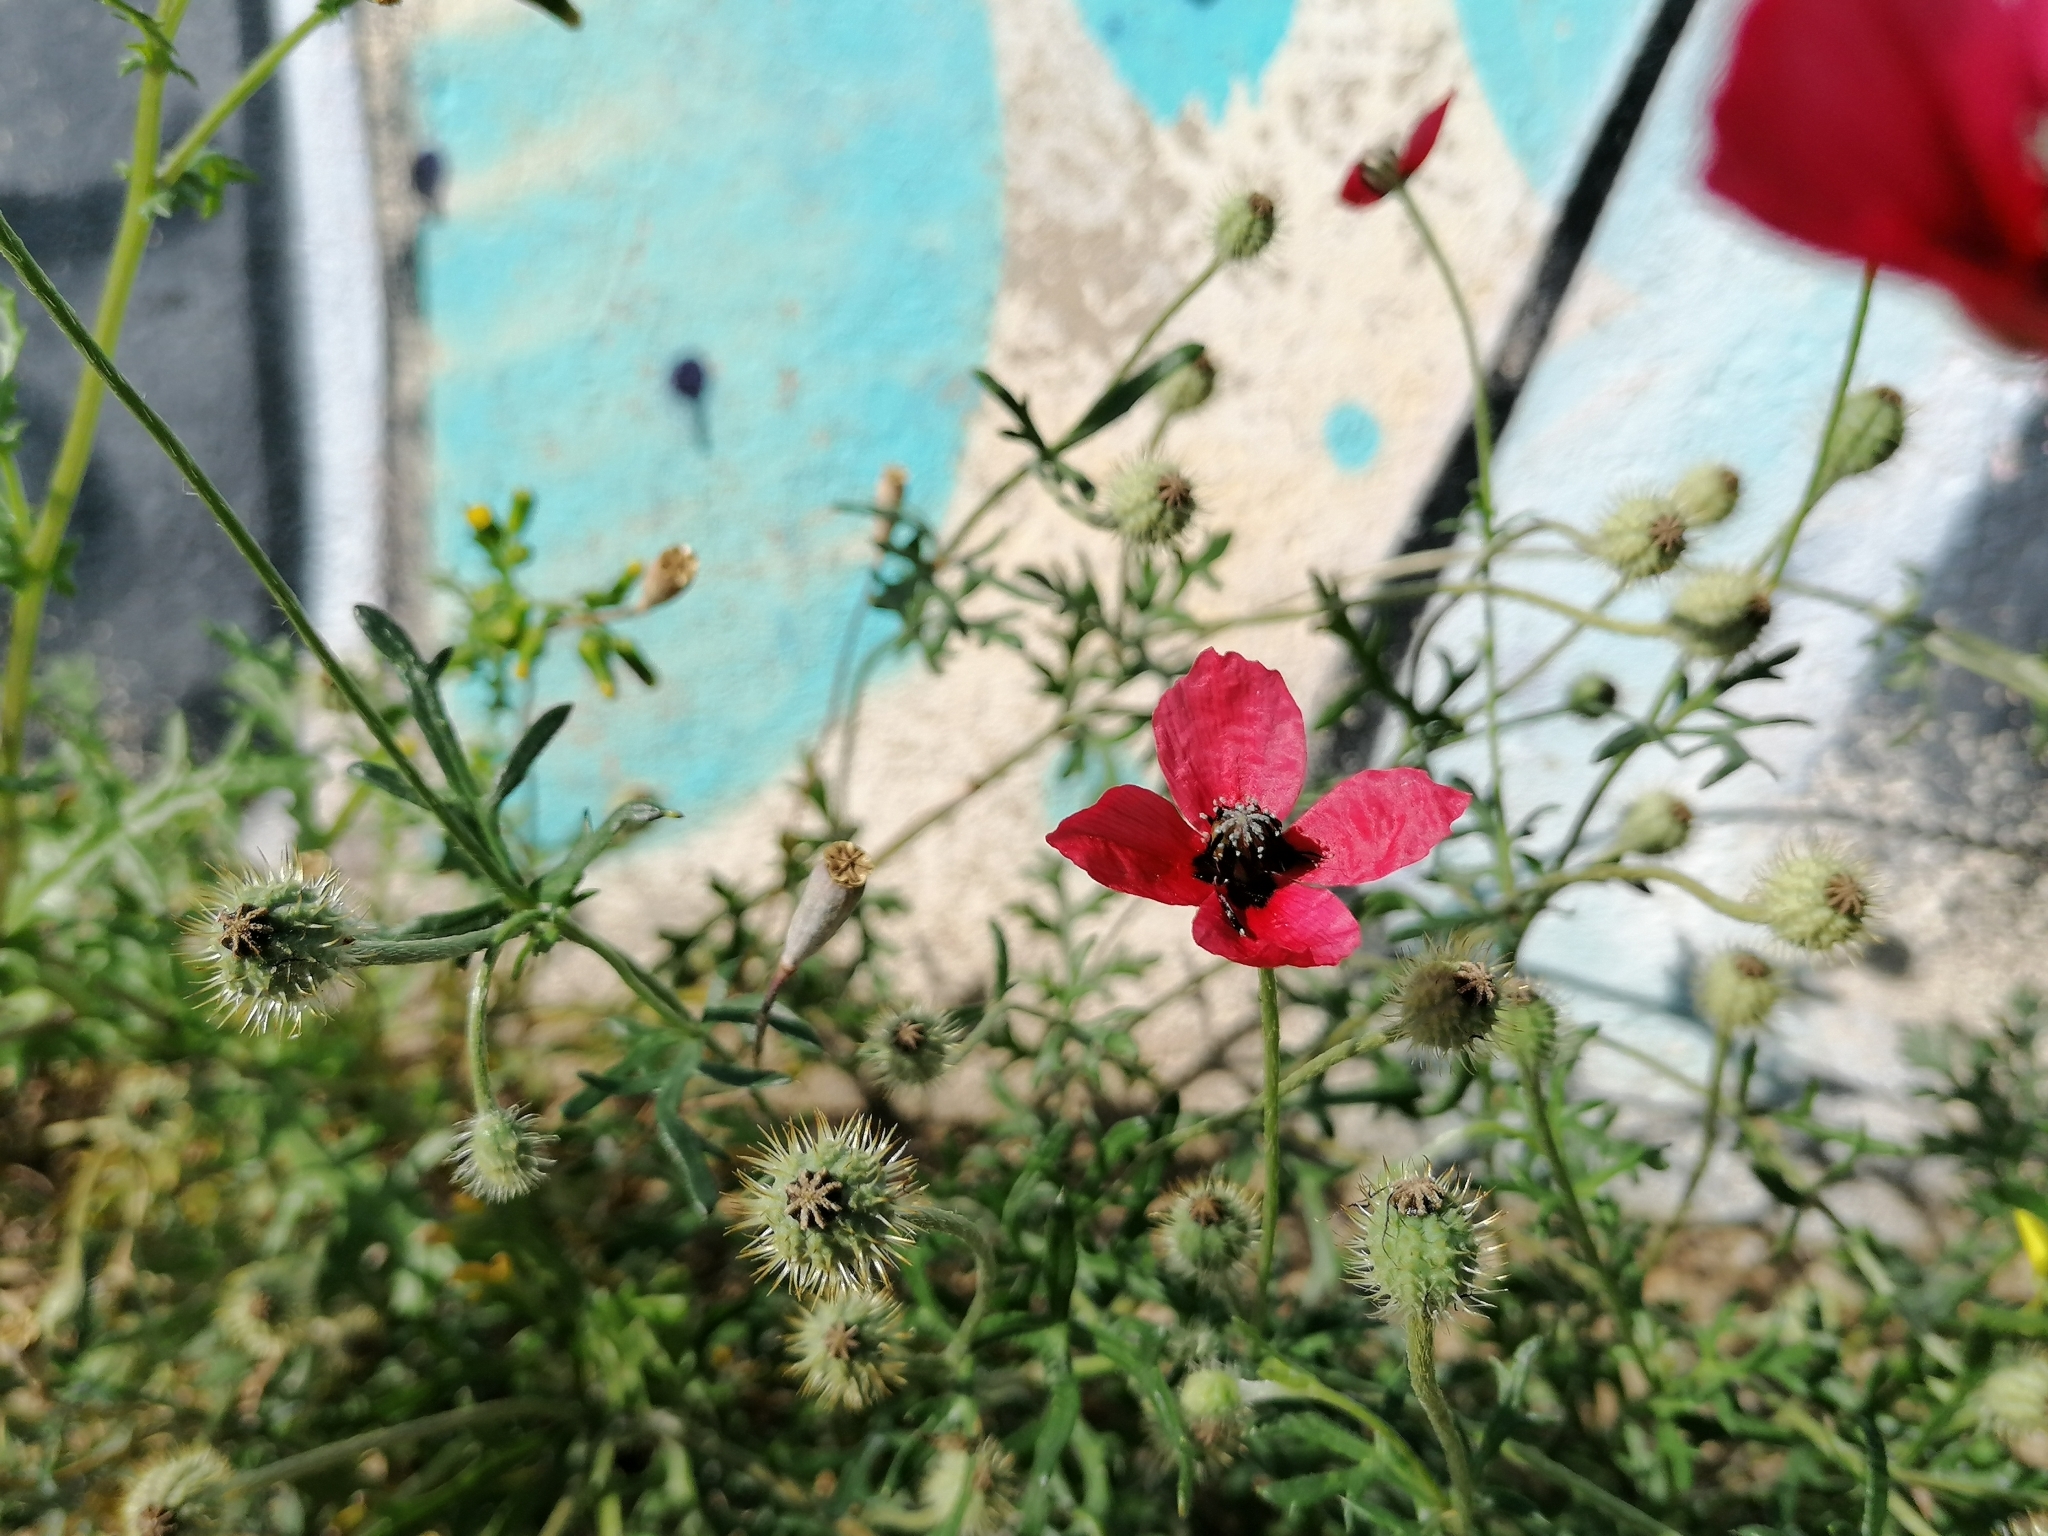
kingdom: Plantae
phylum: Tracheophyta
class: Magnoliopsida
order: Ranunculales
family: Papaveraceae
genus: Roemeria
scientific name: Roemeria hispida
